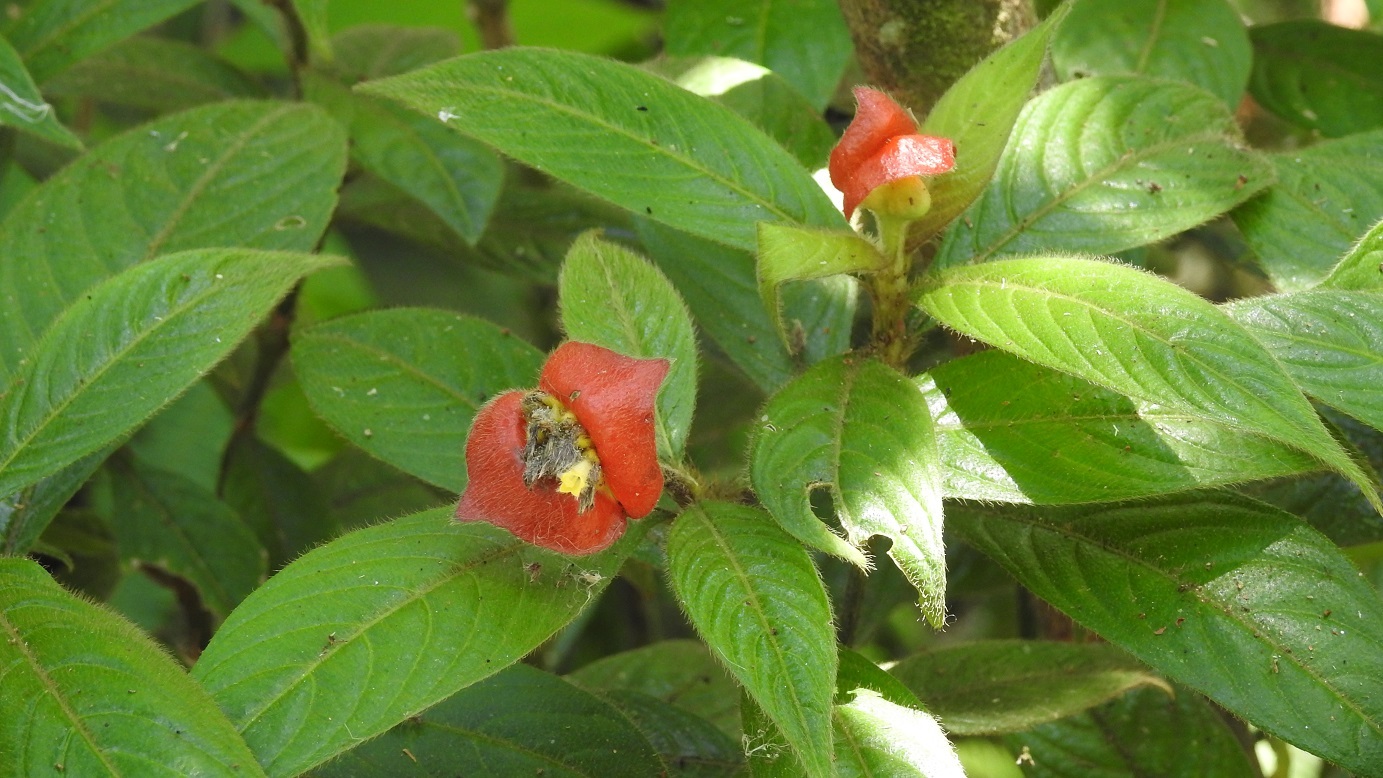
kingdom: Plantae
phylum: Tracheophyta
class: Magnoliopsida
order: Gentianales
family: Rubiaceae
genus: Palicourea
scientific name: Palicourea tomentosa
